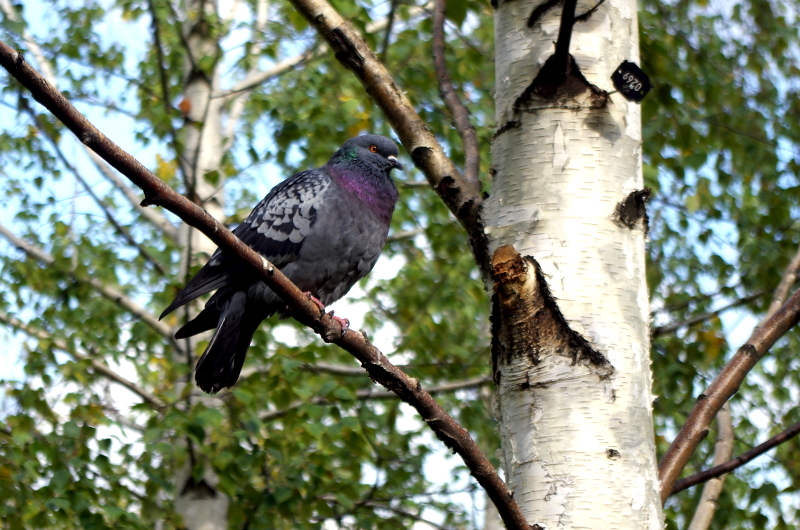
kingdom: Animalia
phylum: Chordata
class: Aves
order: Columbiformes
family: Columbidae
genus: Columba
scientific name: Columba livia
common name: Rock pigeon
